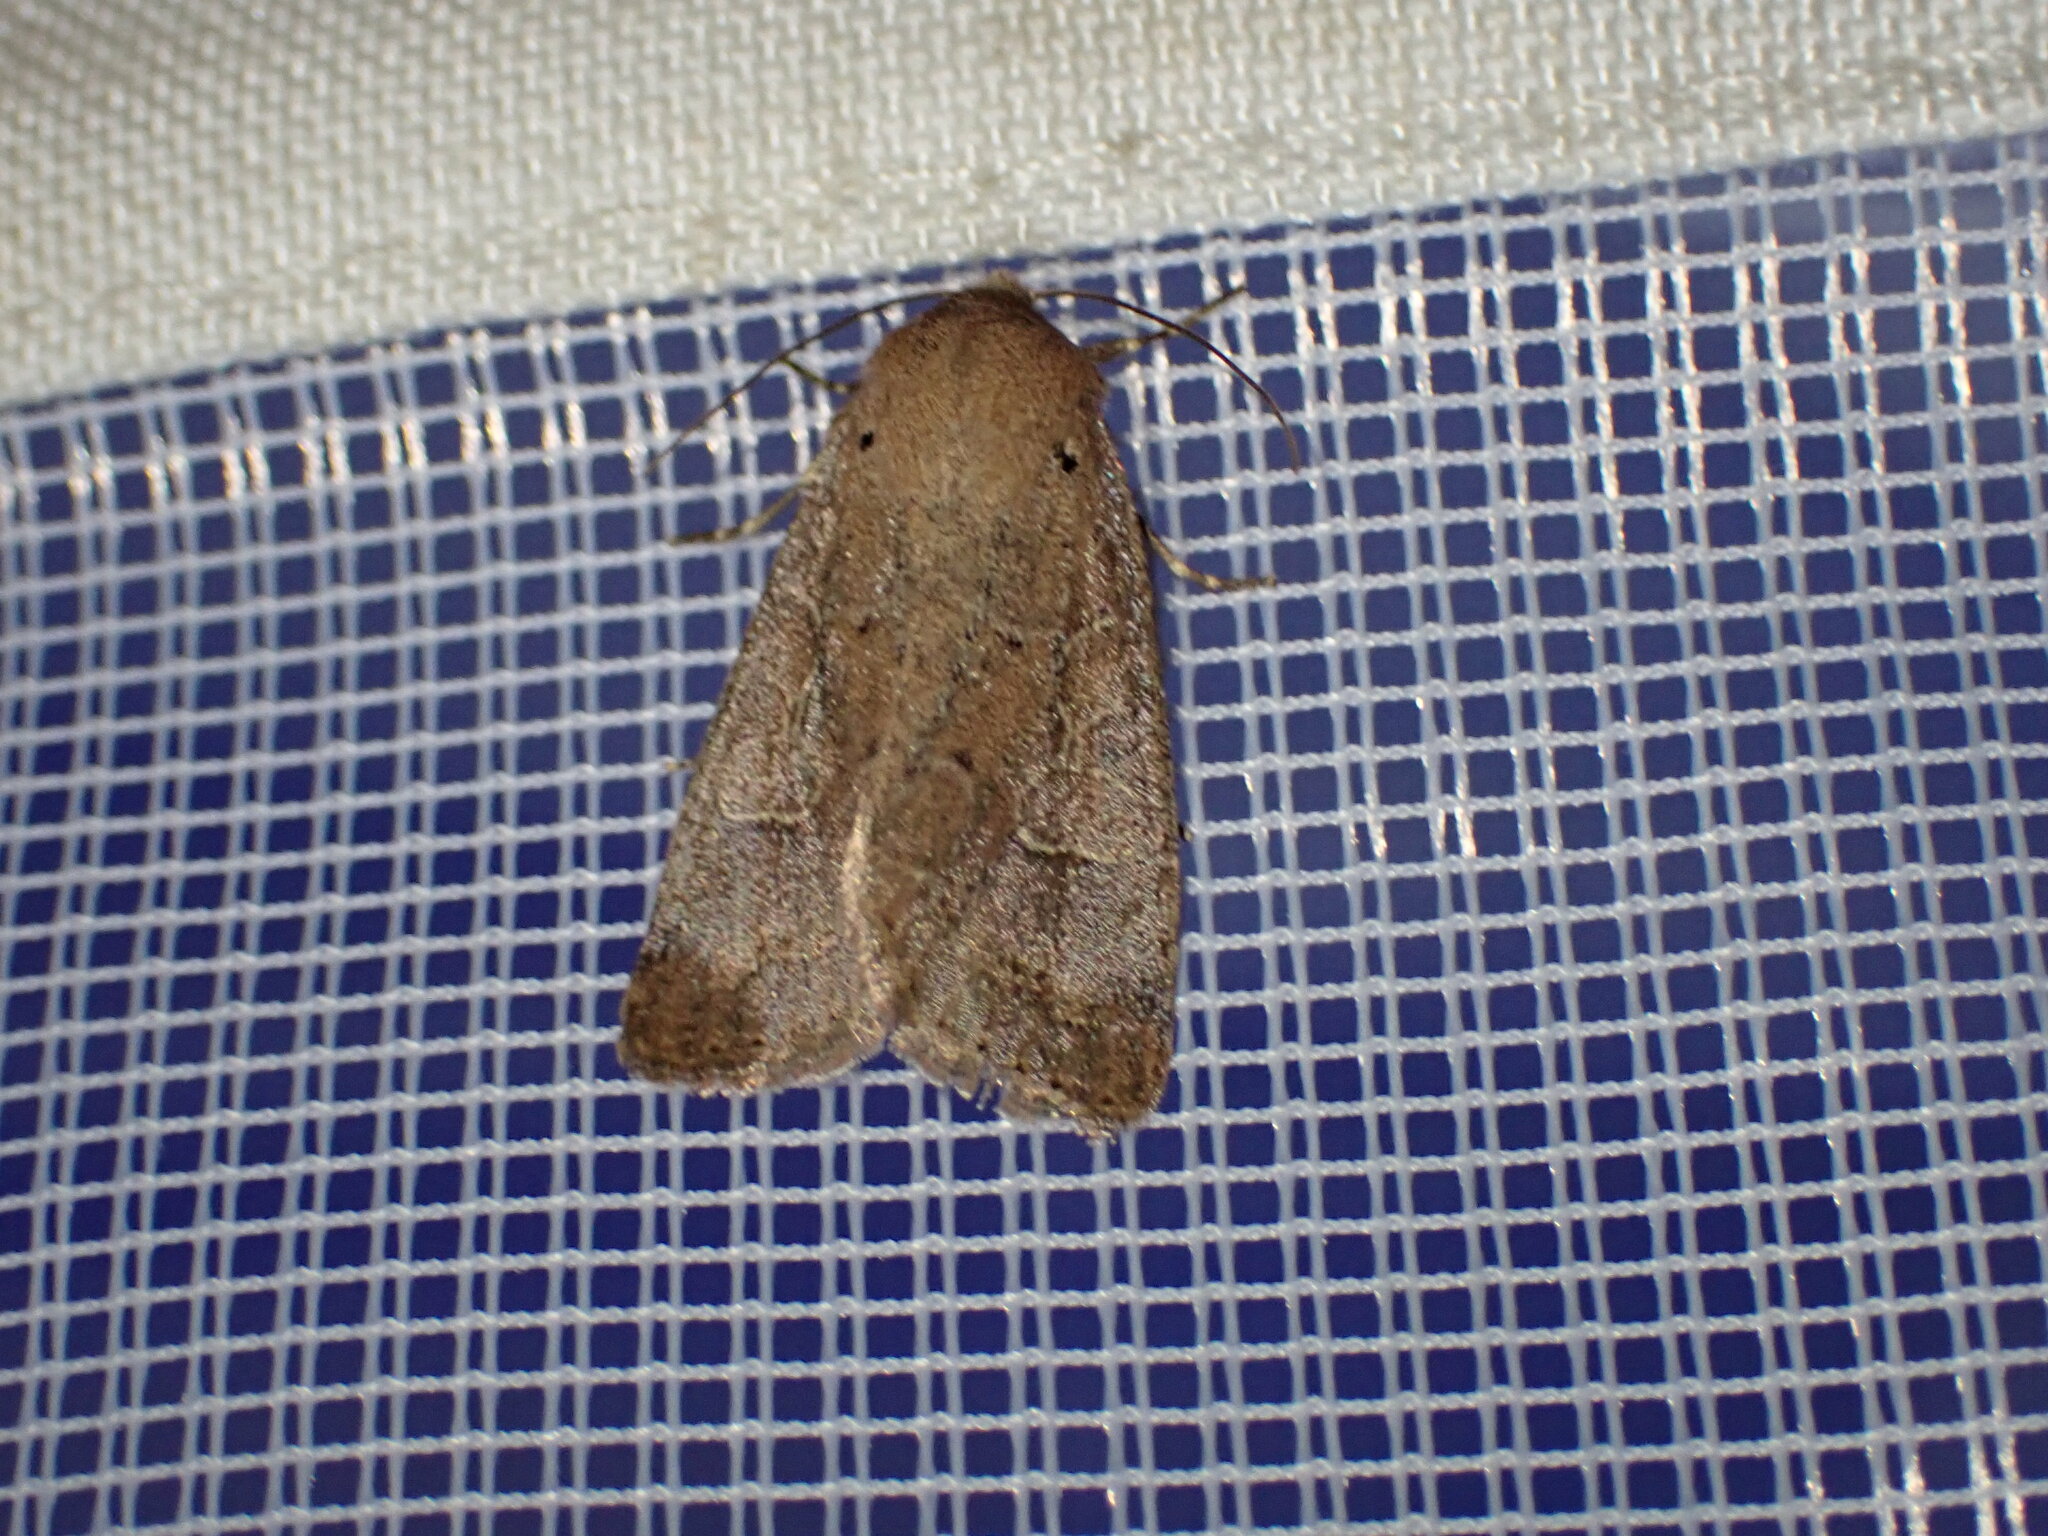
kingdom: Animalia
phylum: Arthropoda
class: Insecta
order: Lepidoptera
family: Noctuidae
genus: Kocakina
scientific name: Kocakina fidelis
